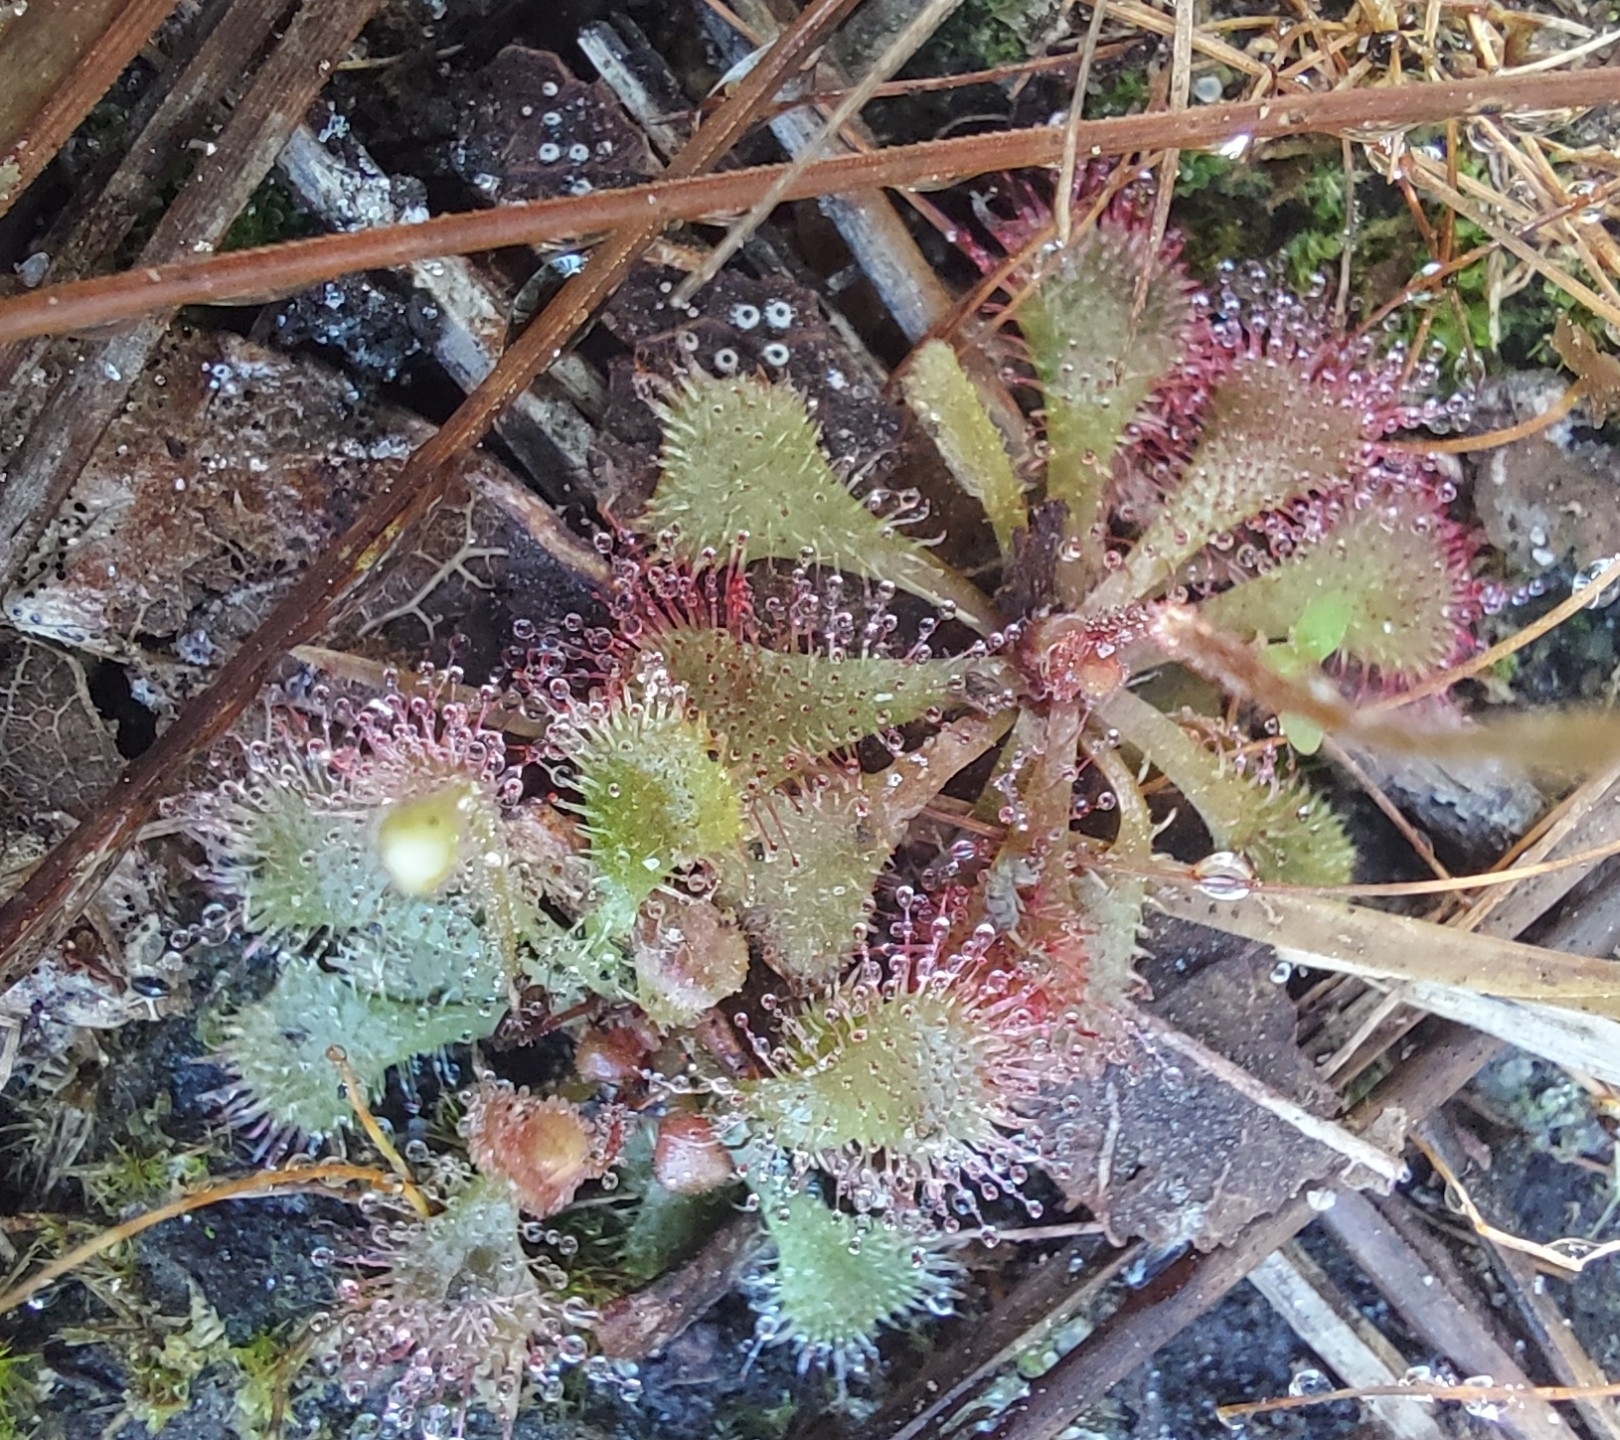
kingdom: Plantae
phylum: Tracheophyta
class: Magnoliopsida
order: Caryophyllales
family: Droseraceae
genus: Drosera
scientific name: Drosera brevifolia
